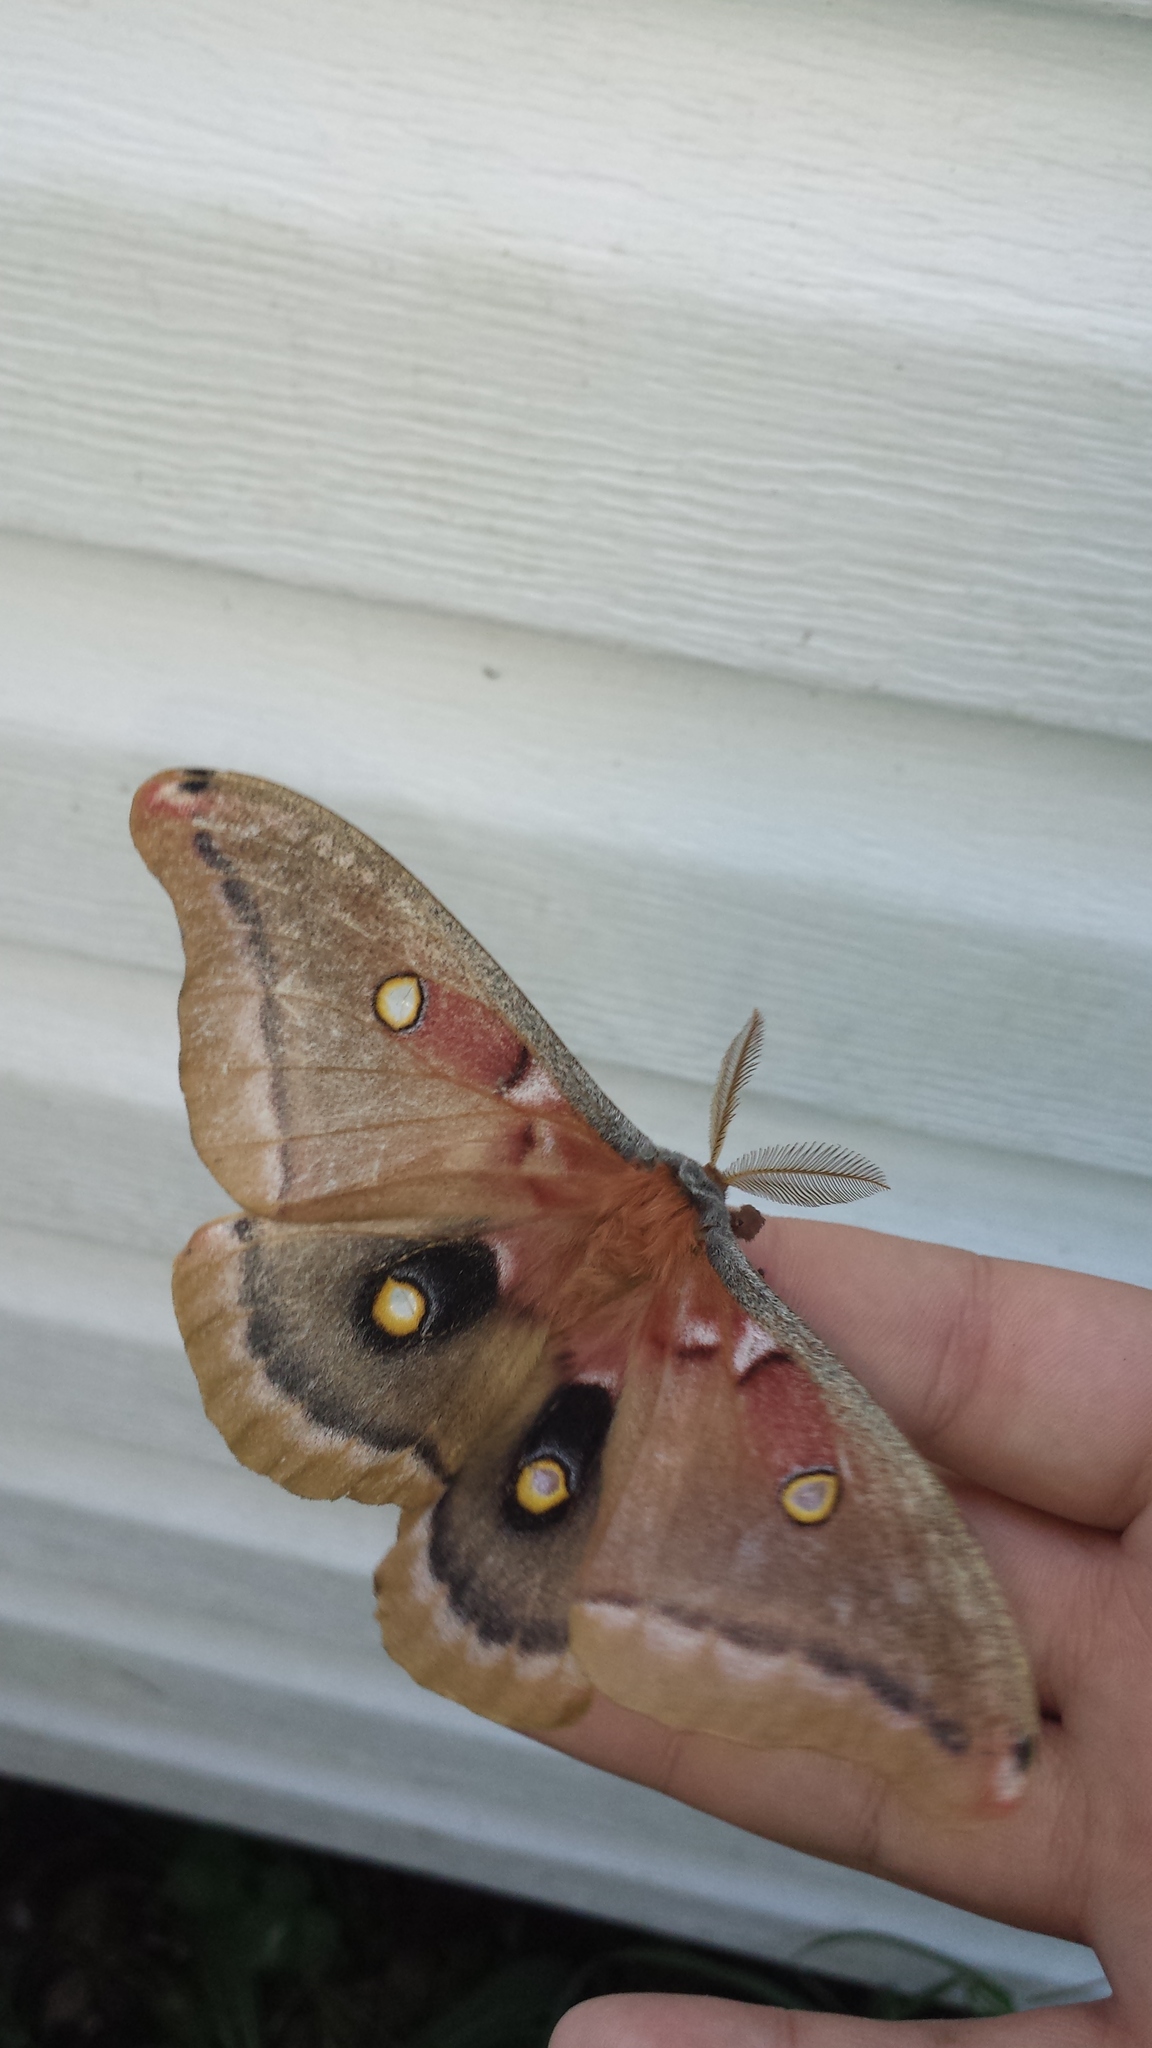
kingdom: Animalia
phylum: Arthropoda
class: Insecta
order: Lepidoptera
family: Saturniidae
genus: Antheraea
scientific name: Antheraea polyphemus
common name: Polyphemus moth
